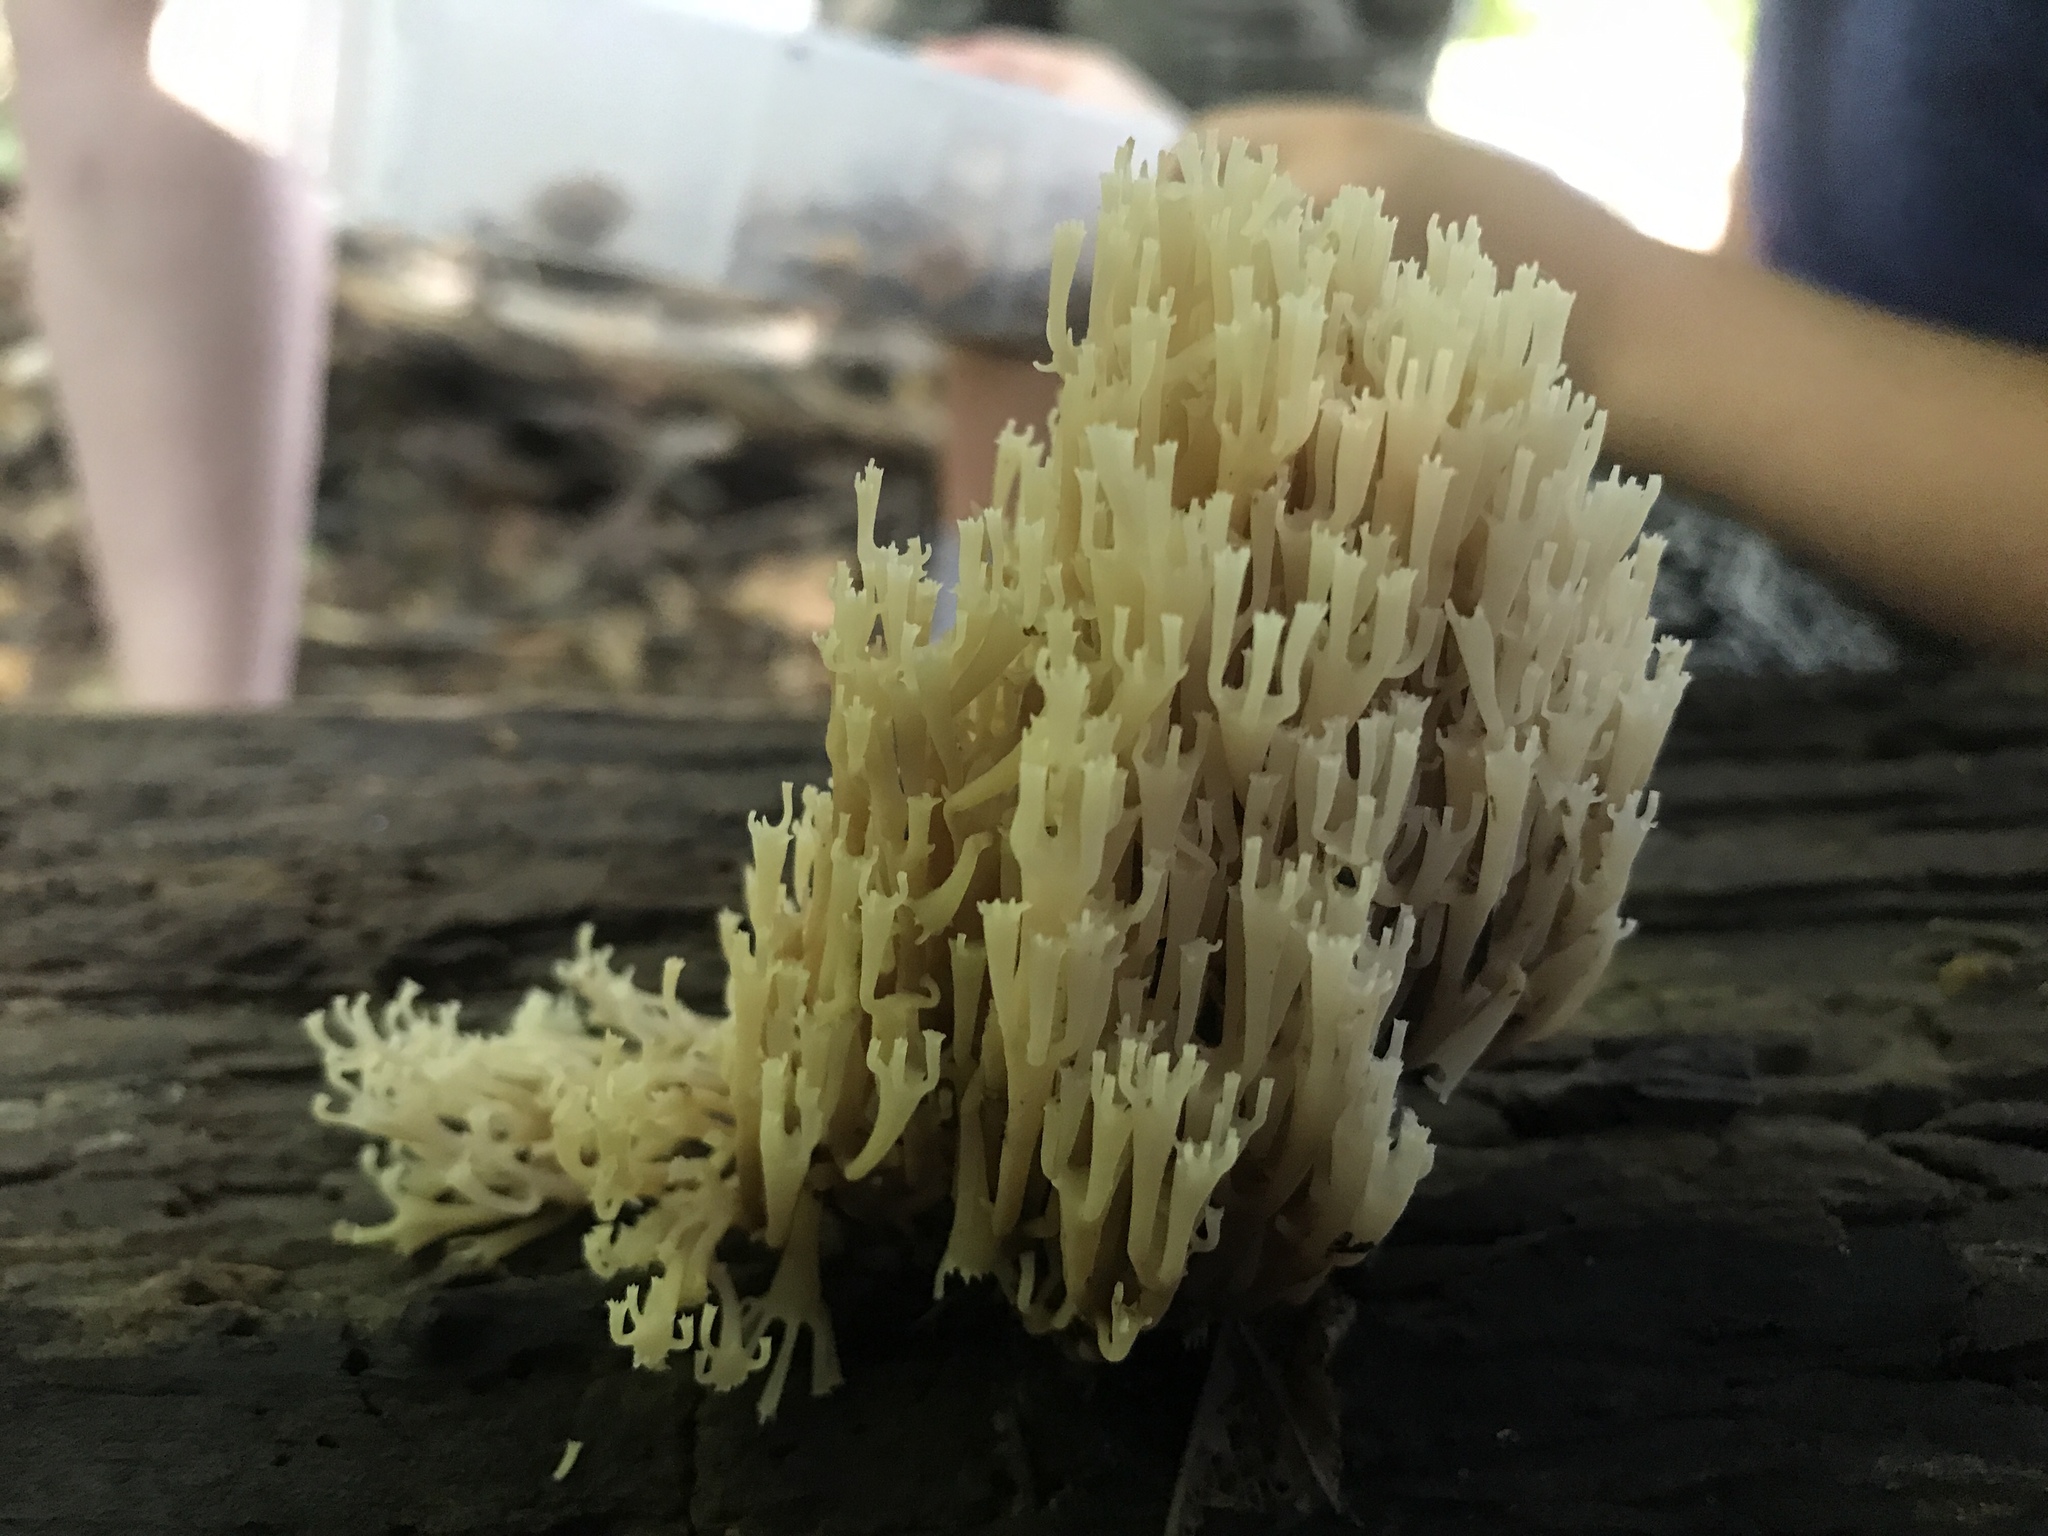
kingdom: Fungi
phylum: Basidiomycota
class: Agaricomycetes
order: Russulales
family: Auriscalpiaceae
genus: Artomyces
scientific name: Artomyces pyxidatus
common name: Crown-tipped coral fungus
